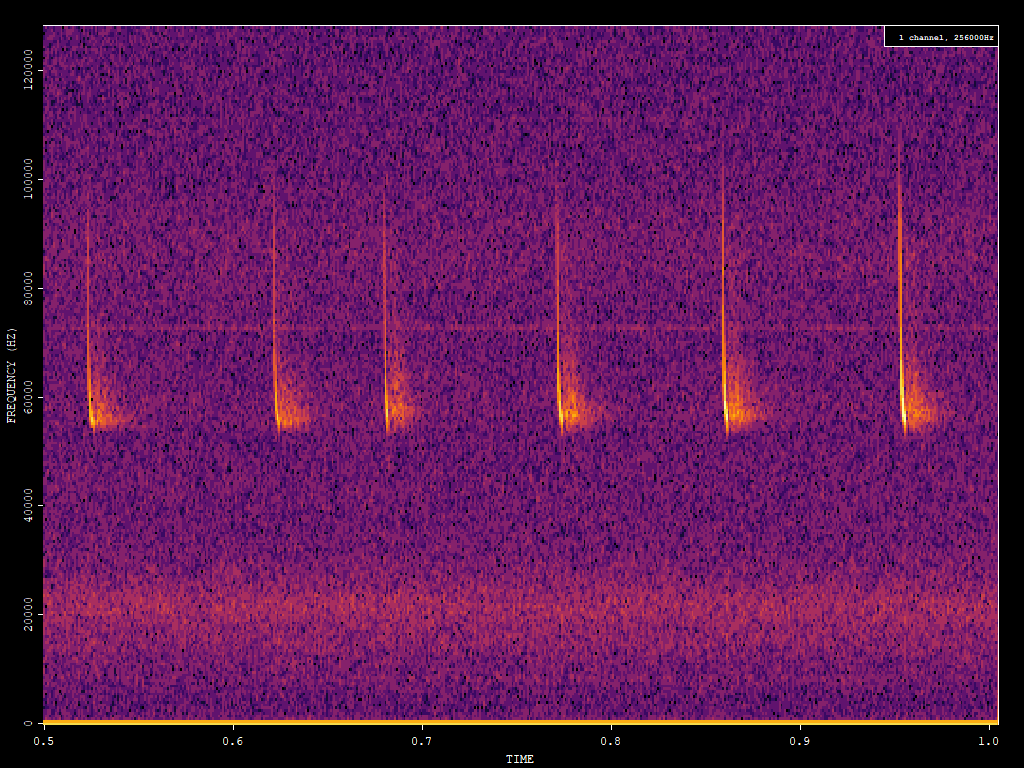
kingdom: Animalia
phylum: Chordata
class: Mammalia
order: Chiroptera
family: Vespertilionidae
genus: Pipistrellus
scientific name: Pipistrellus pygmaeus
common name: Soprano pipistrelle
